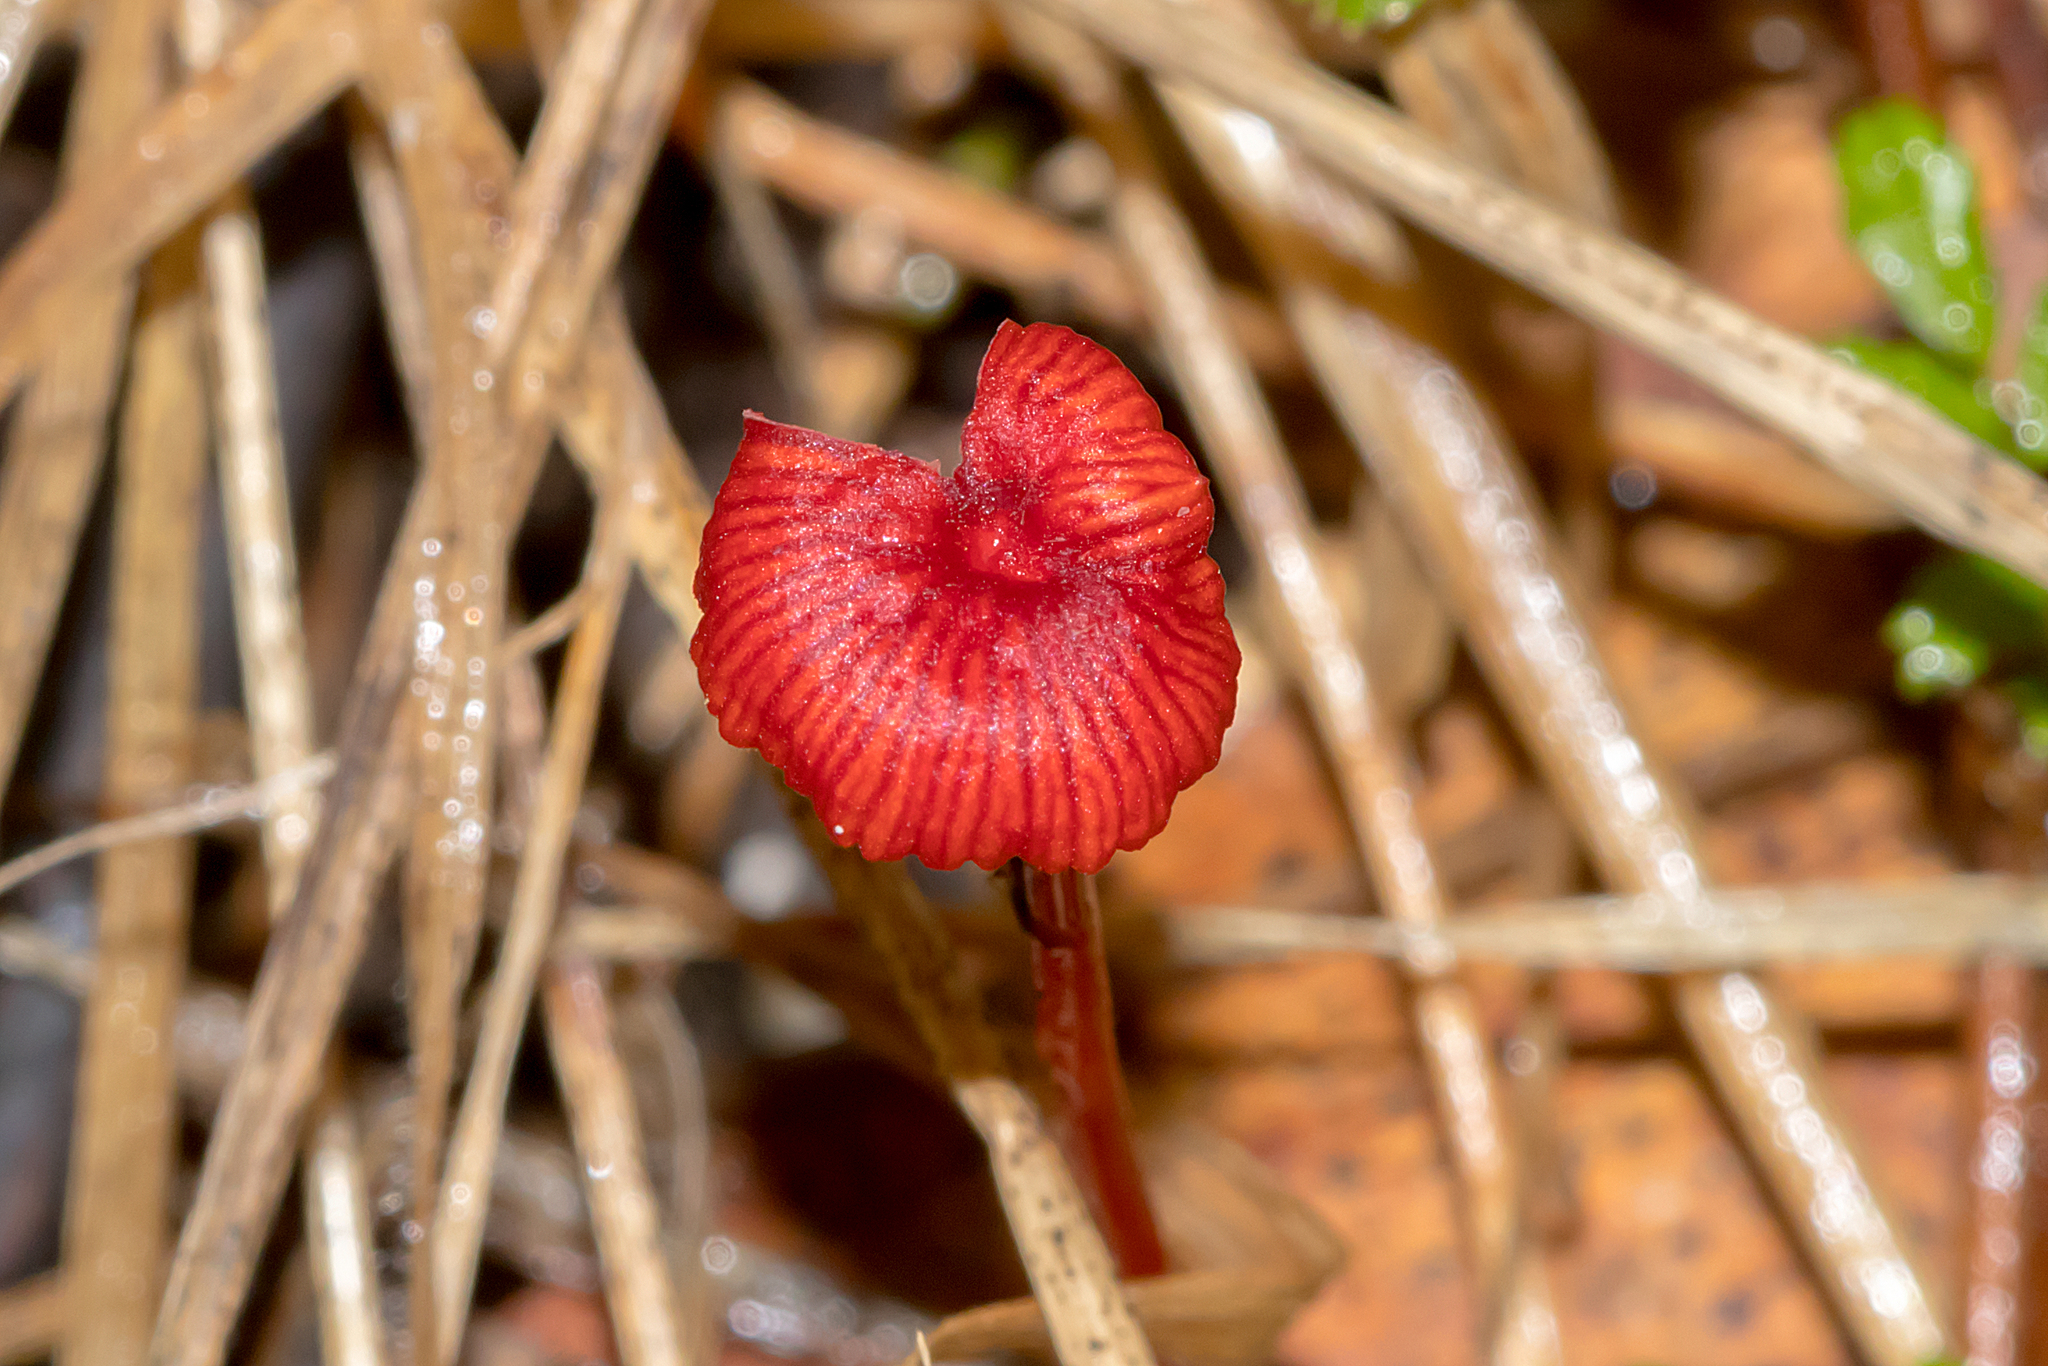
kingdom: Fungi
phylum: Basidiomycota
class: Agaricomycetes
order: Agaricales
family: Mycenaceae
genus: Cruentomycena
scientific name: Cruentomycena viscidocruenta
